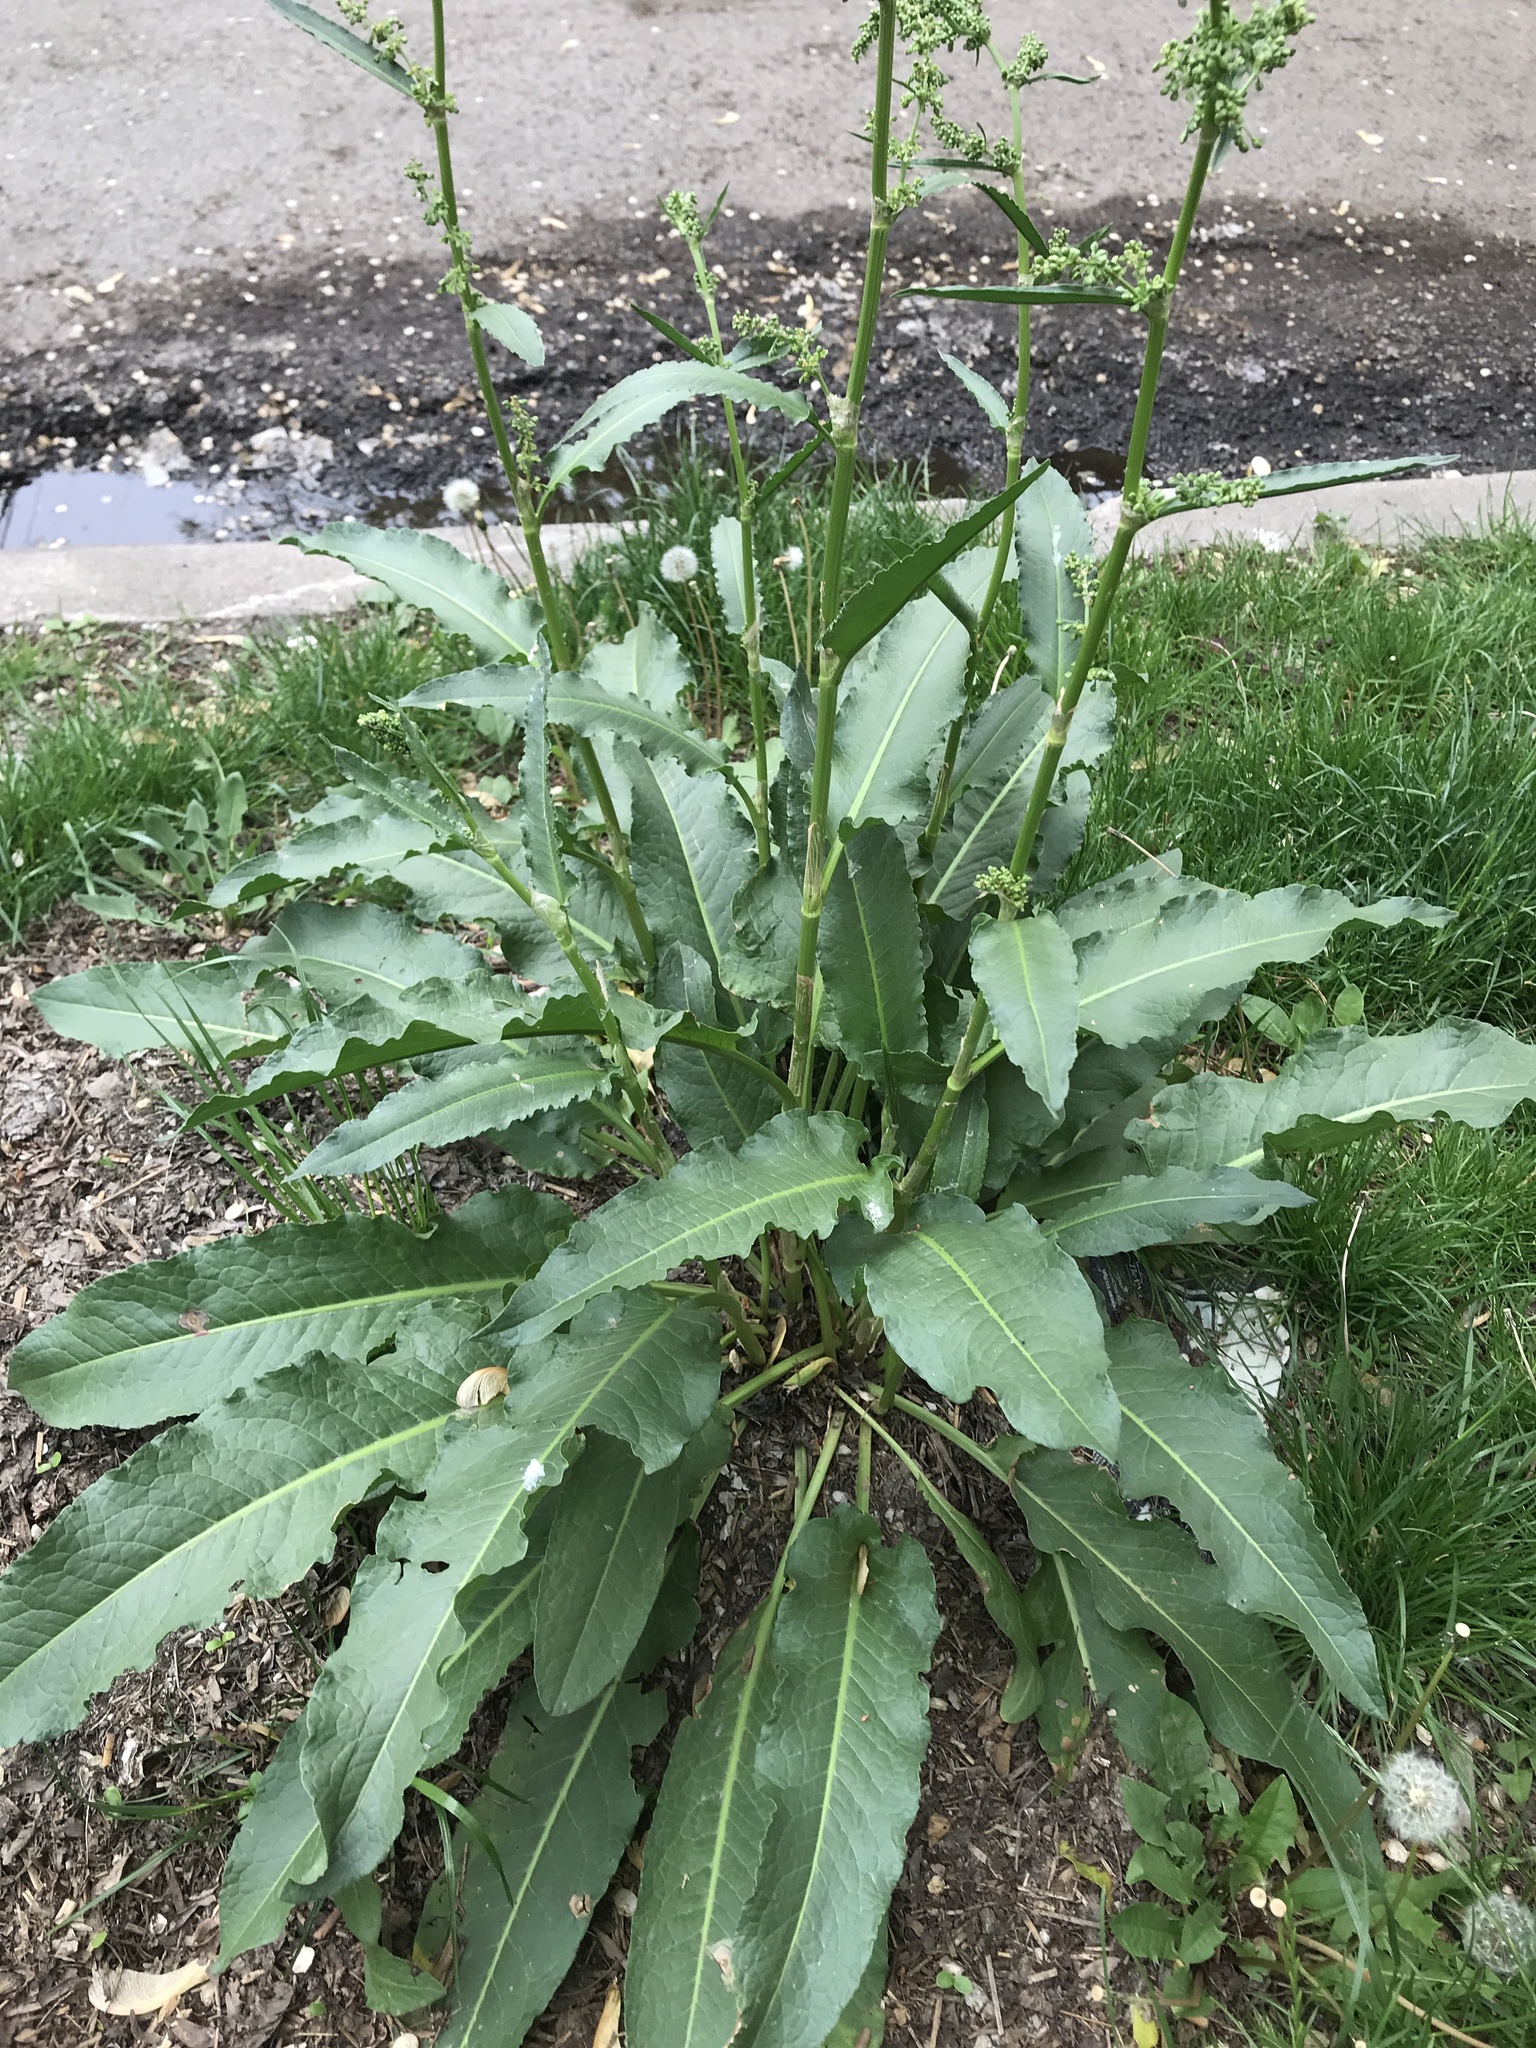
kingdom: Plantae
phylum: Tracheophyta
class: Magnoliopsida
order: Caryophyllales
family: Polygonaceae
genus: Rumex
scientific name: Rumex crispus
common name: Curled dock
